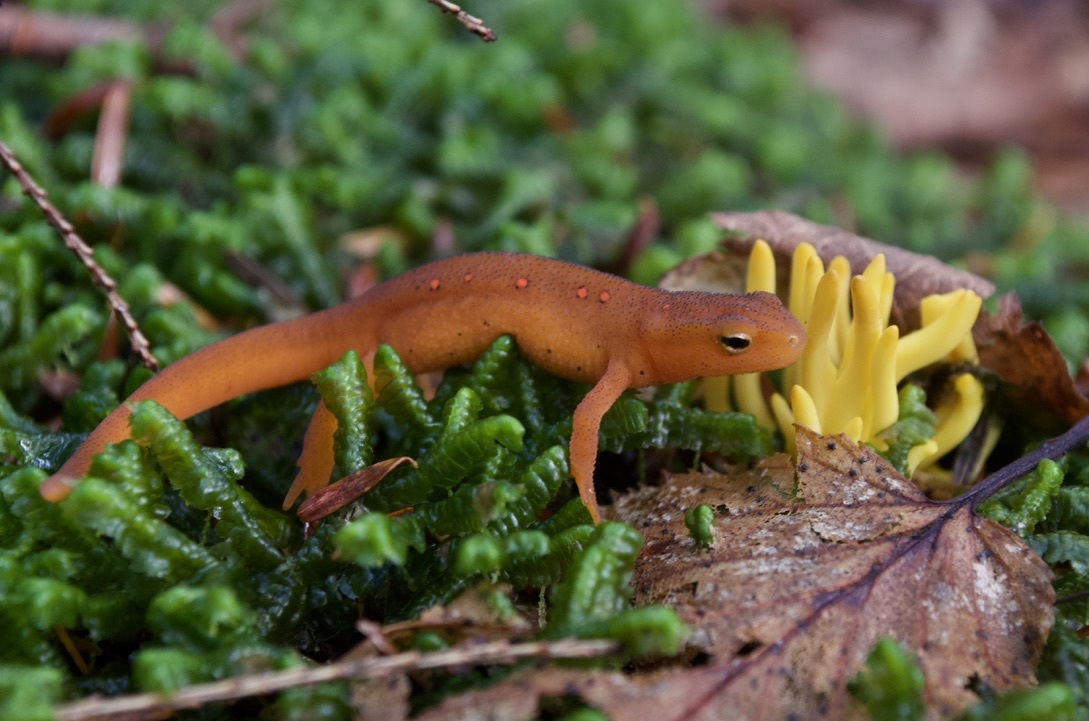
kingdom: Animalia
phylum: Chordata
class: Amphibia
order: Caudata
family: Salamandridae
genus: Notophthalmus
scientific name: Notophthalmus viridescens
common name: Eastern newt
